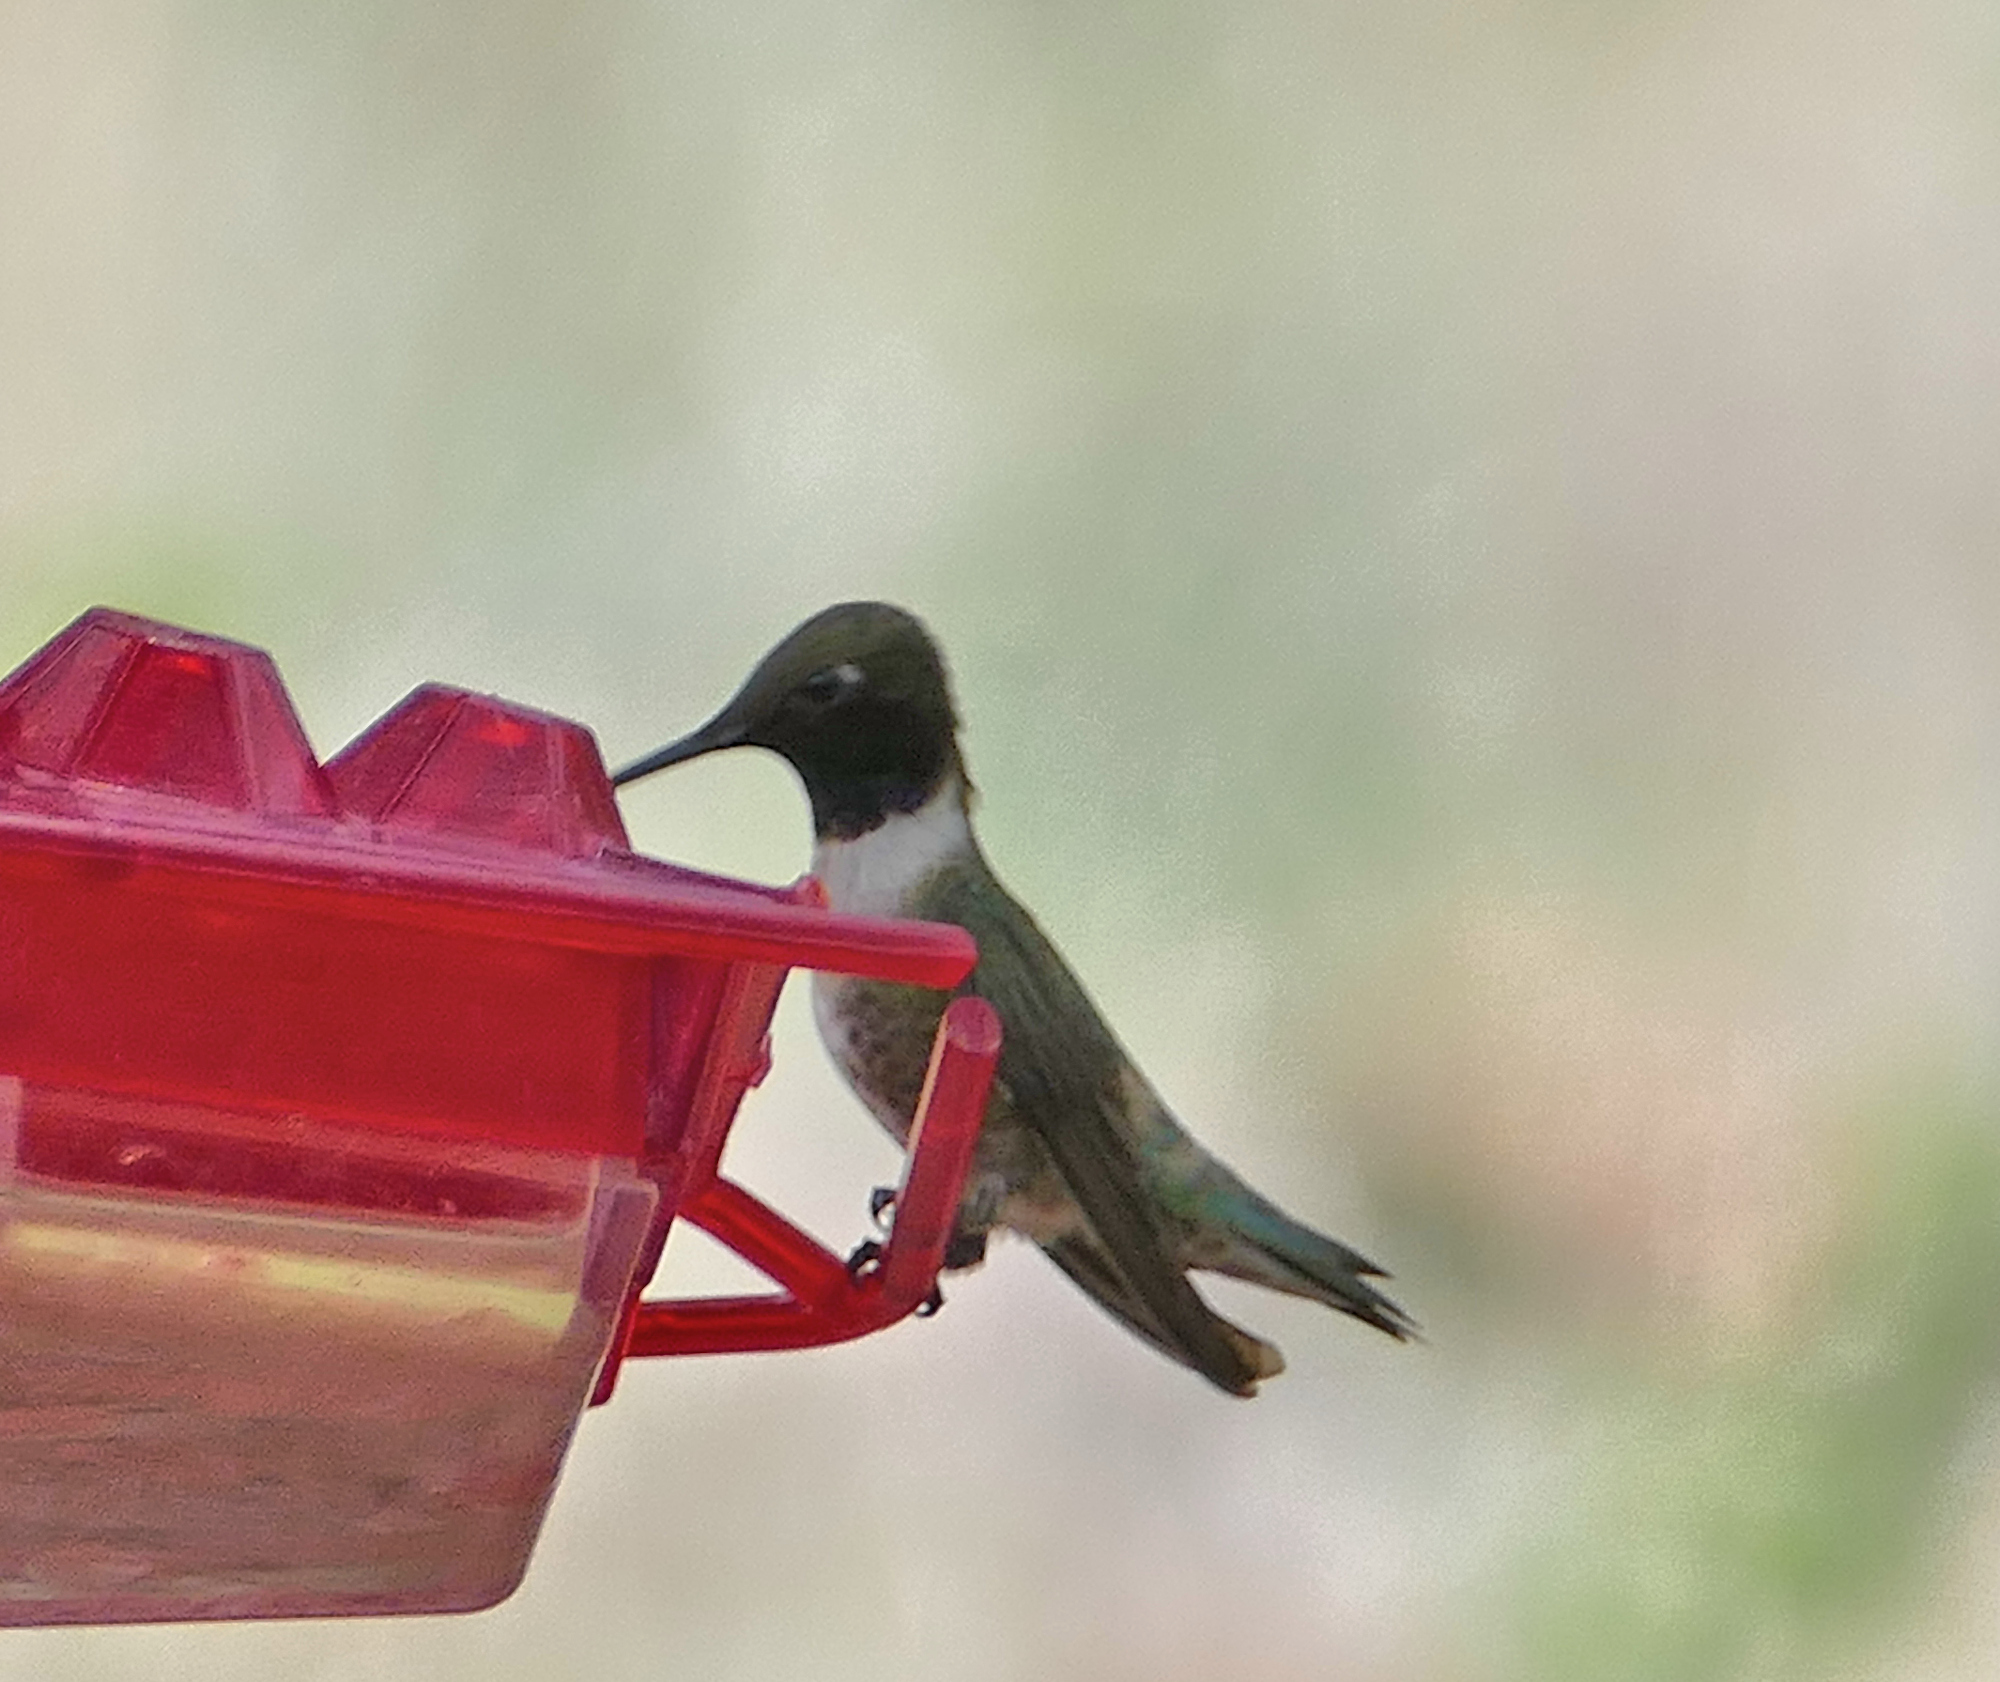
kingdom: Animalia
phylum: Chordata
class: Aves
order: Apodiformes
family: Trochilidae
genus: Archilochus
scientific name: Archilochus alexandri
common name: Black-chinned hummingbird
